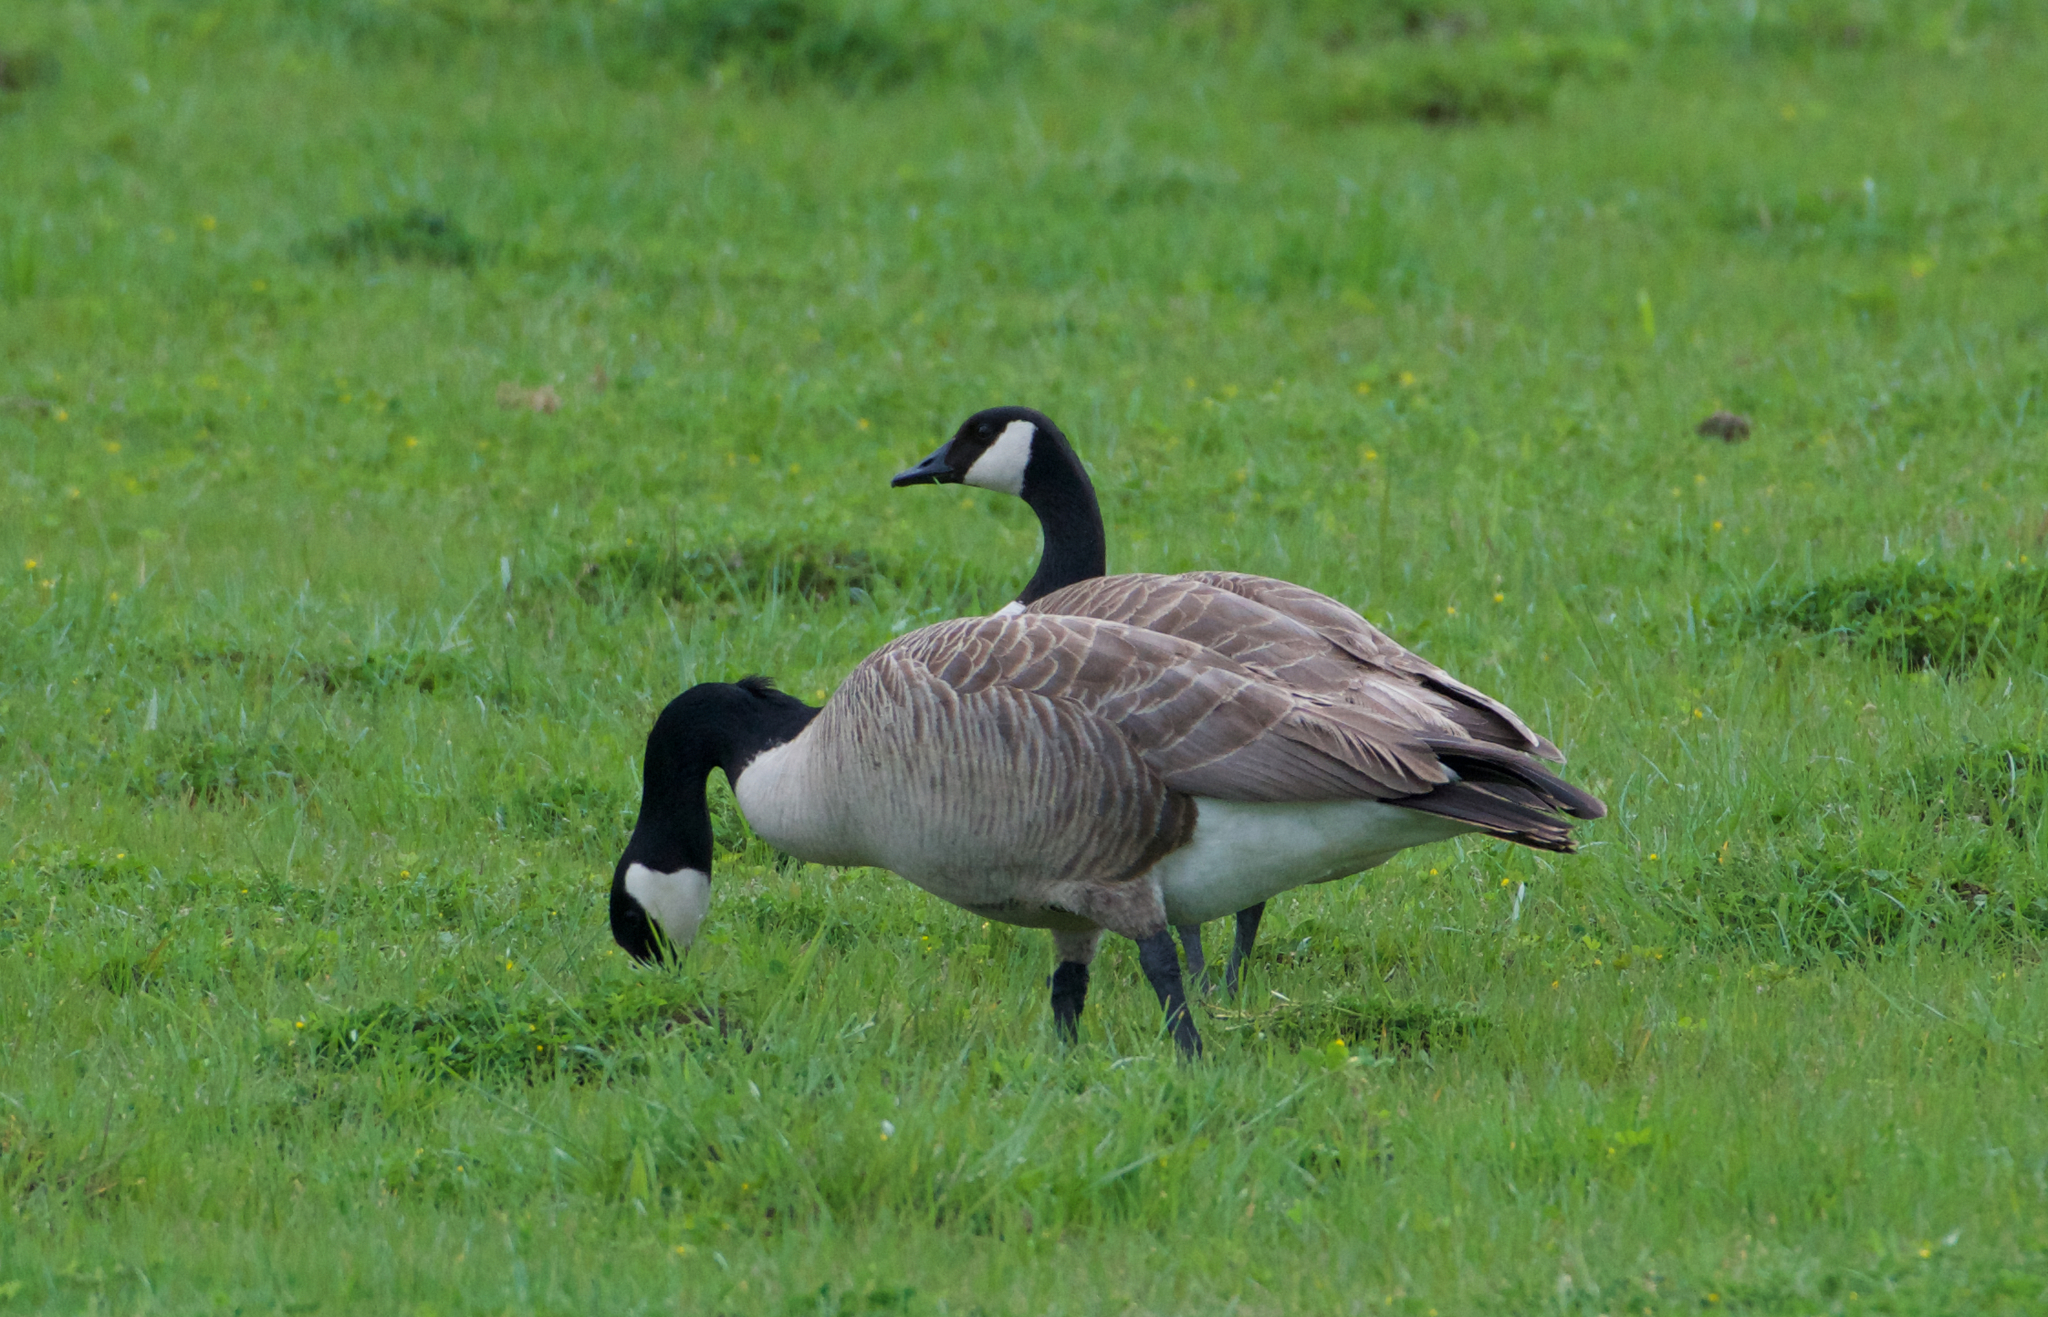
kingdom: Animalia
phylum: Chordata
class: Aves
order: Anseriformes
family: Anatidae
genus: Branta
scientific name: Branta canadensis
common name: Canada goose
